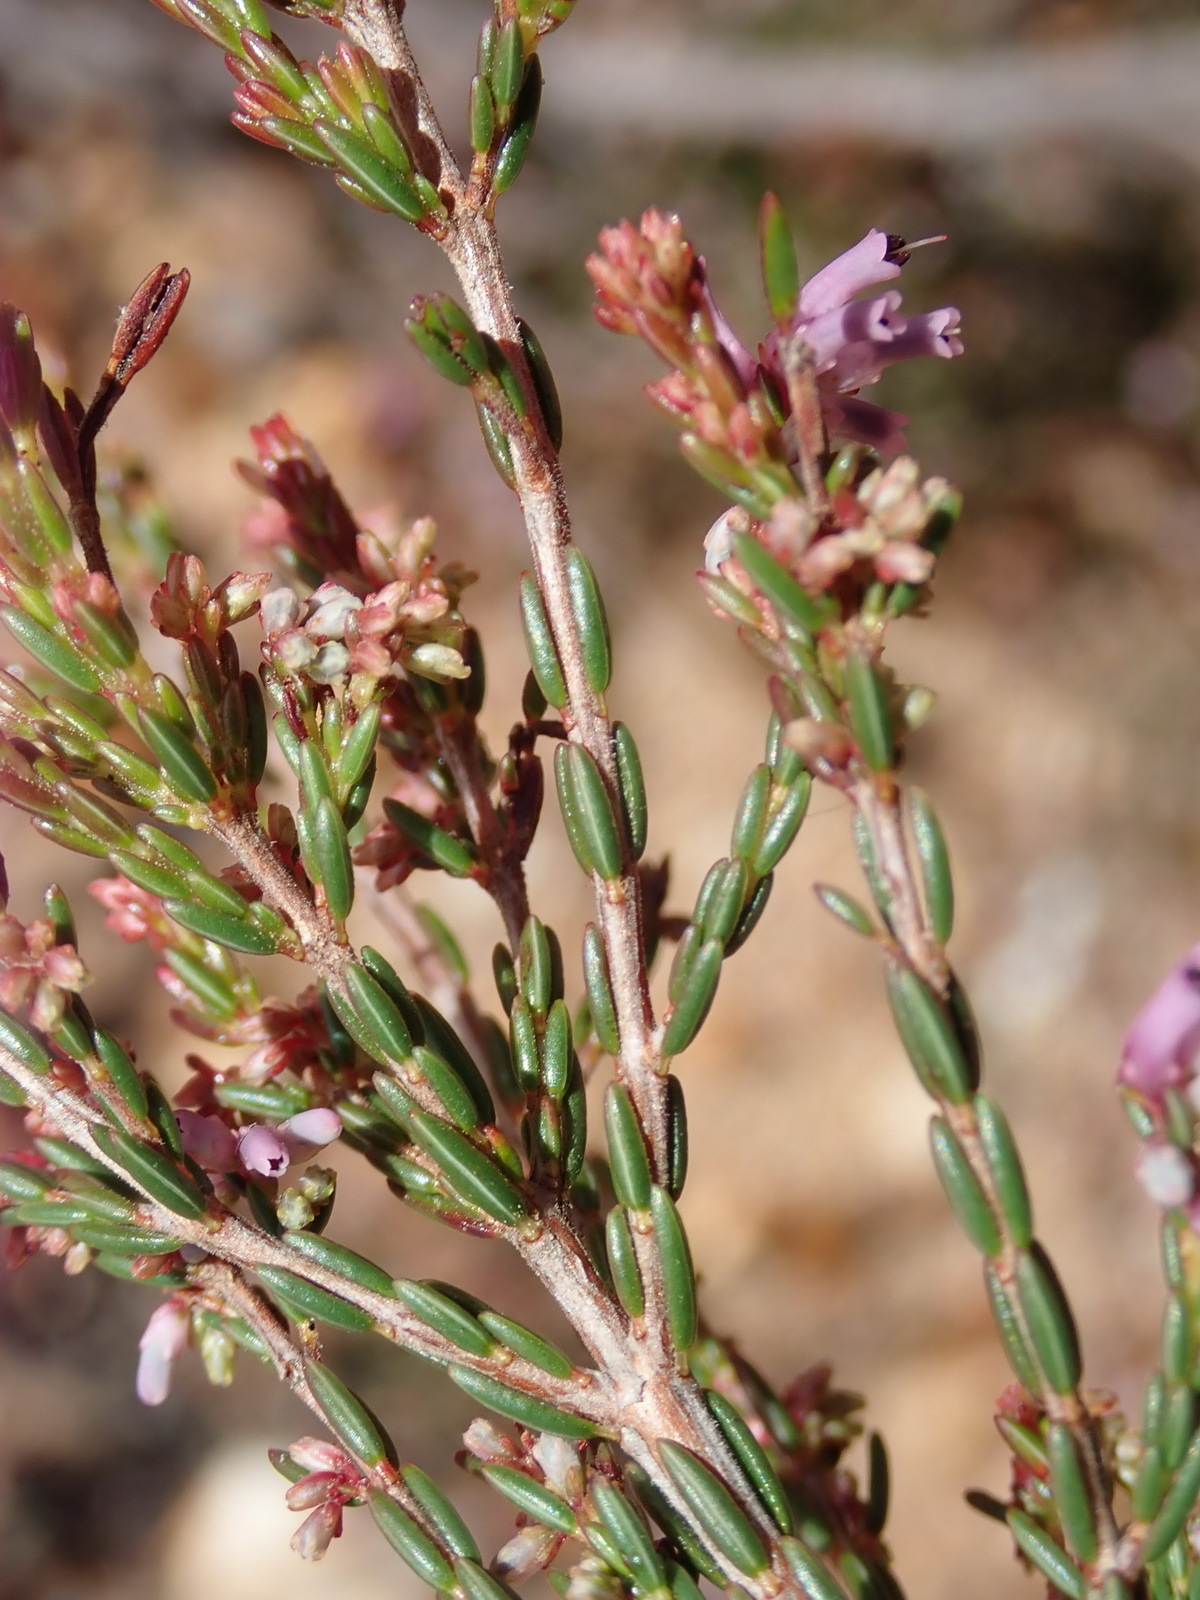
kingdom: Plantae
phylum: Tracheophyta
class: Magnoliopsida
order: Ericales
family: Ericaceae
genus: Erica
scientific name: Erica uberiflora
